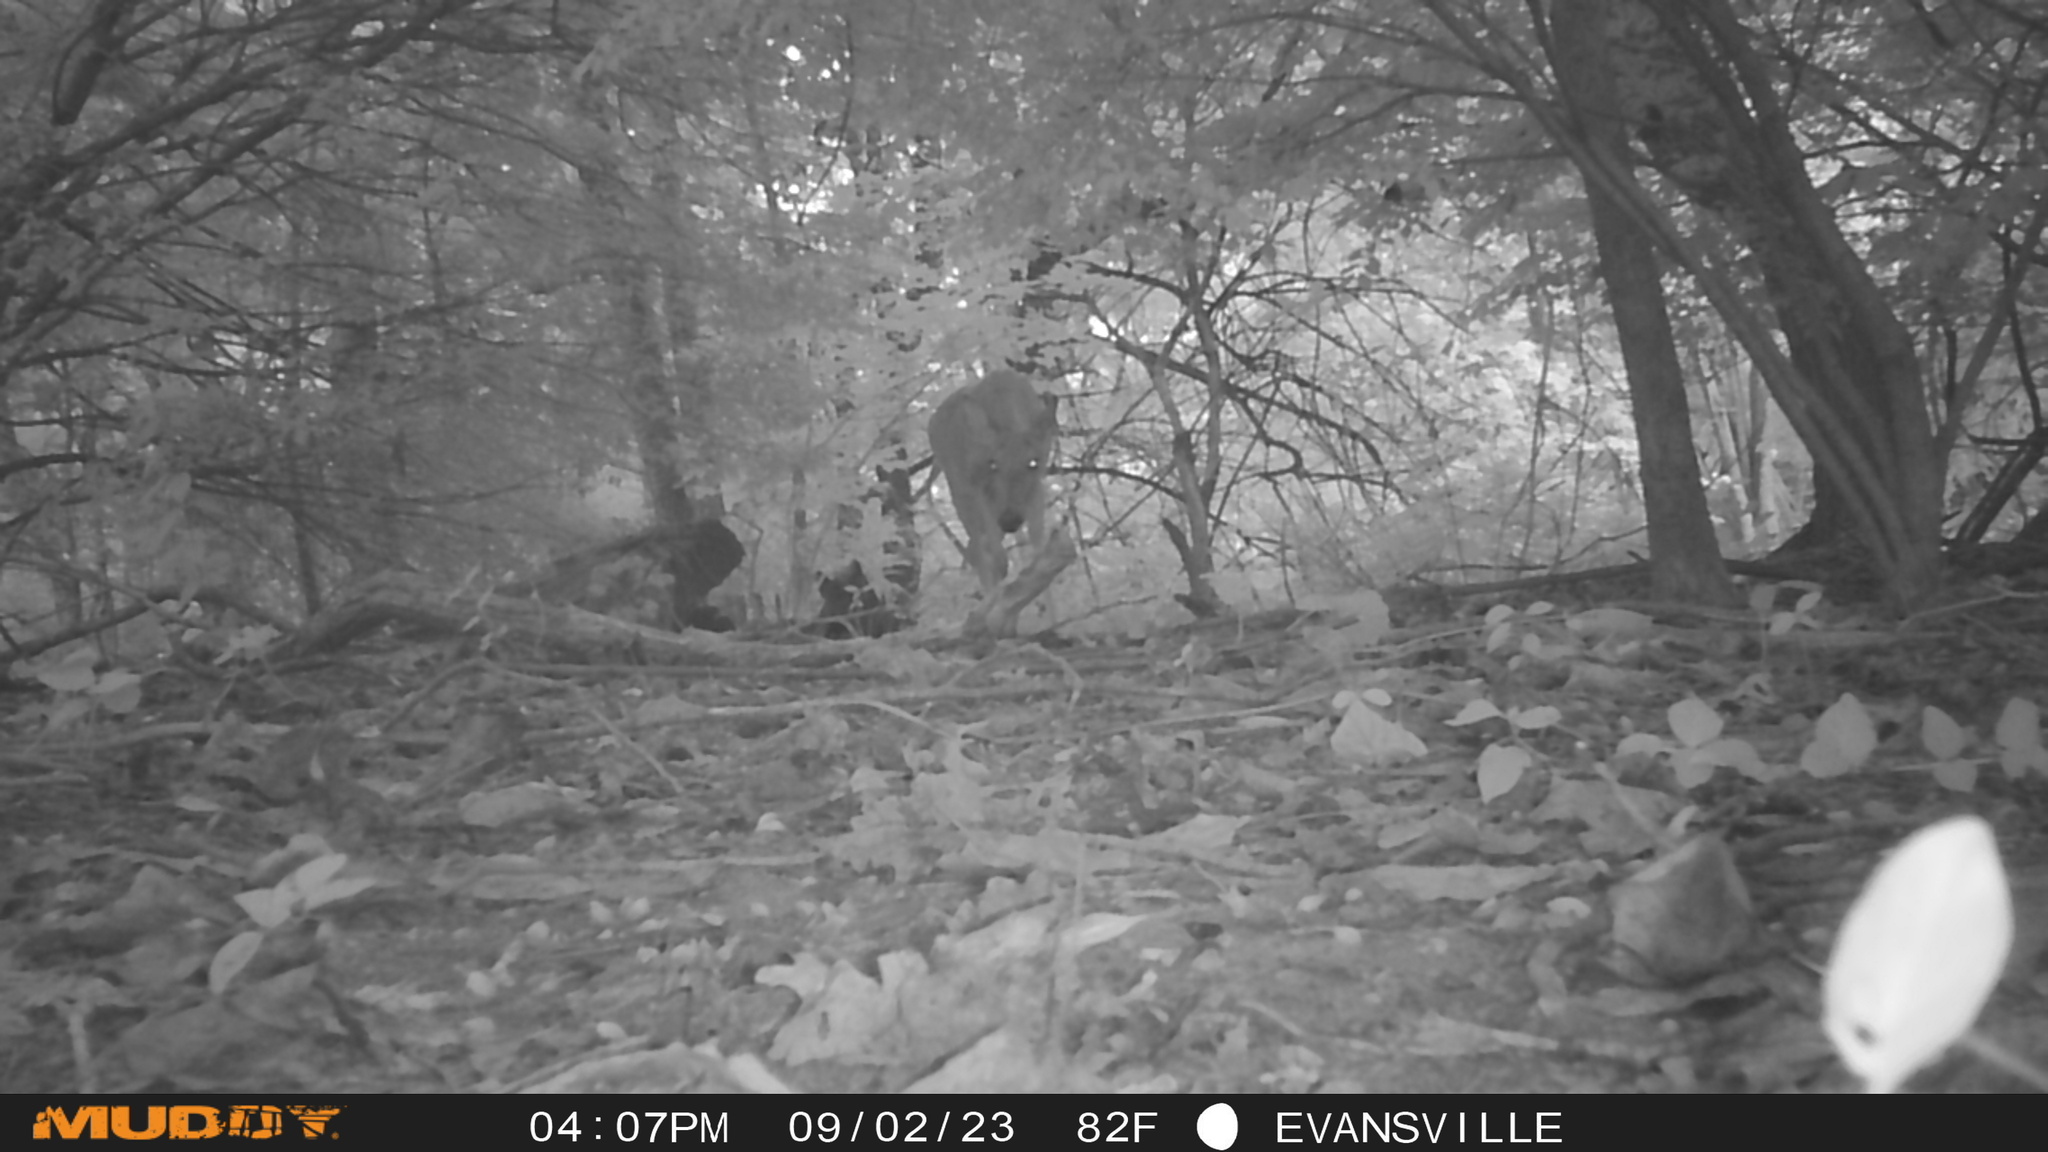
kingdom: Animalia
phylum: Chordata
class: Mammalia
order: Artiodactyla
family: Cervidae
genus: Odocoileus
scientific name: Odocoileus virginianus
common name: White-tailed deer
